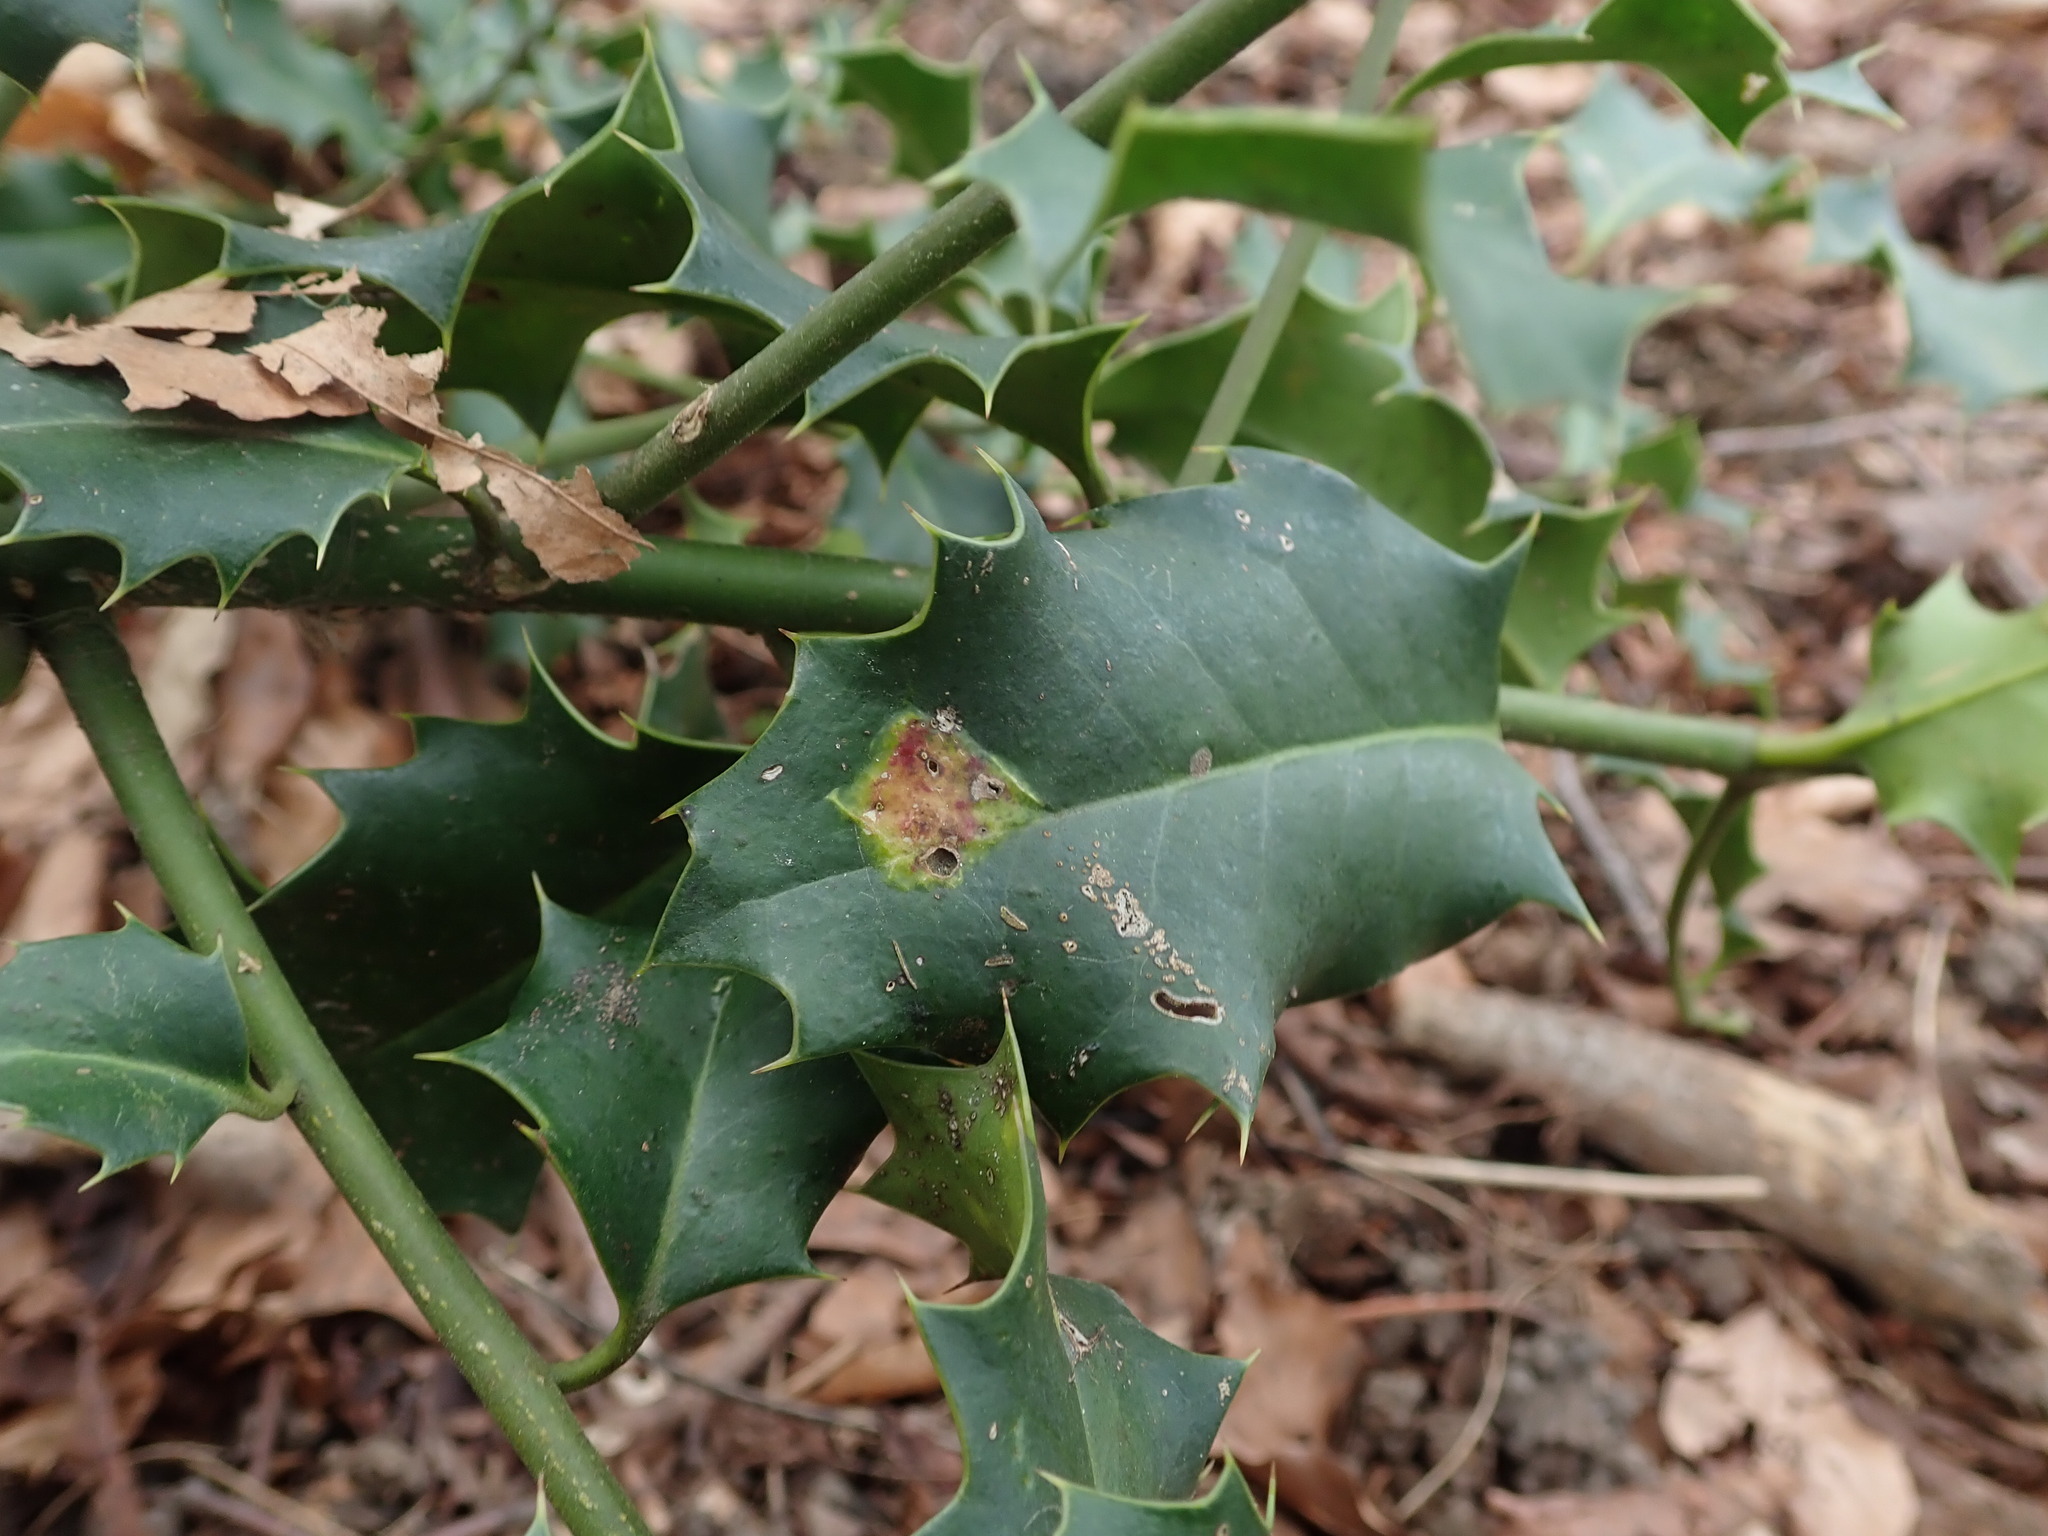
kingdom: Animalia
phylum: Arthropoda
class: Insecta
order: Diptera
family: Agromyzidae
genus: Phytomyza
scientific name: Phytomyza ilicis
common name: Holly leafminer
